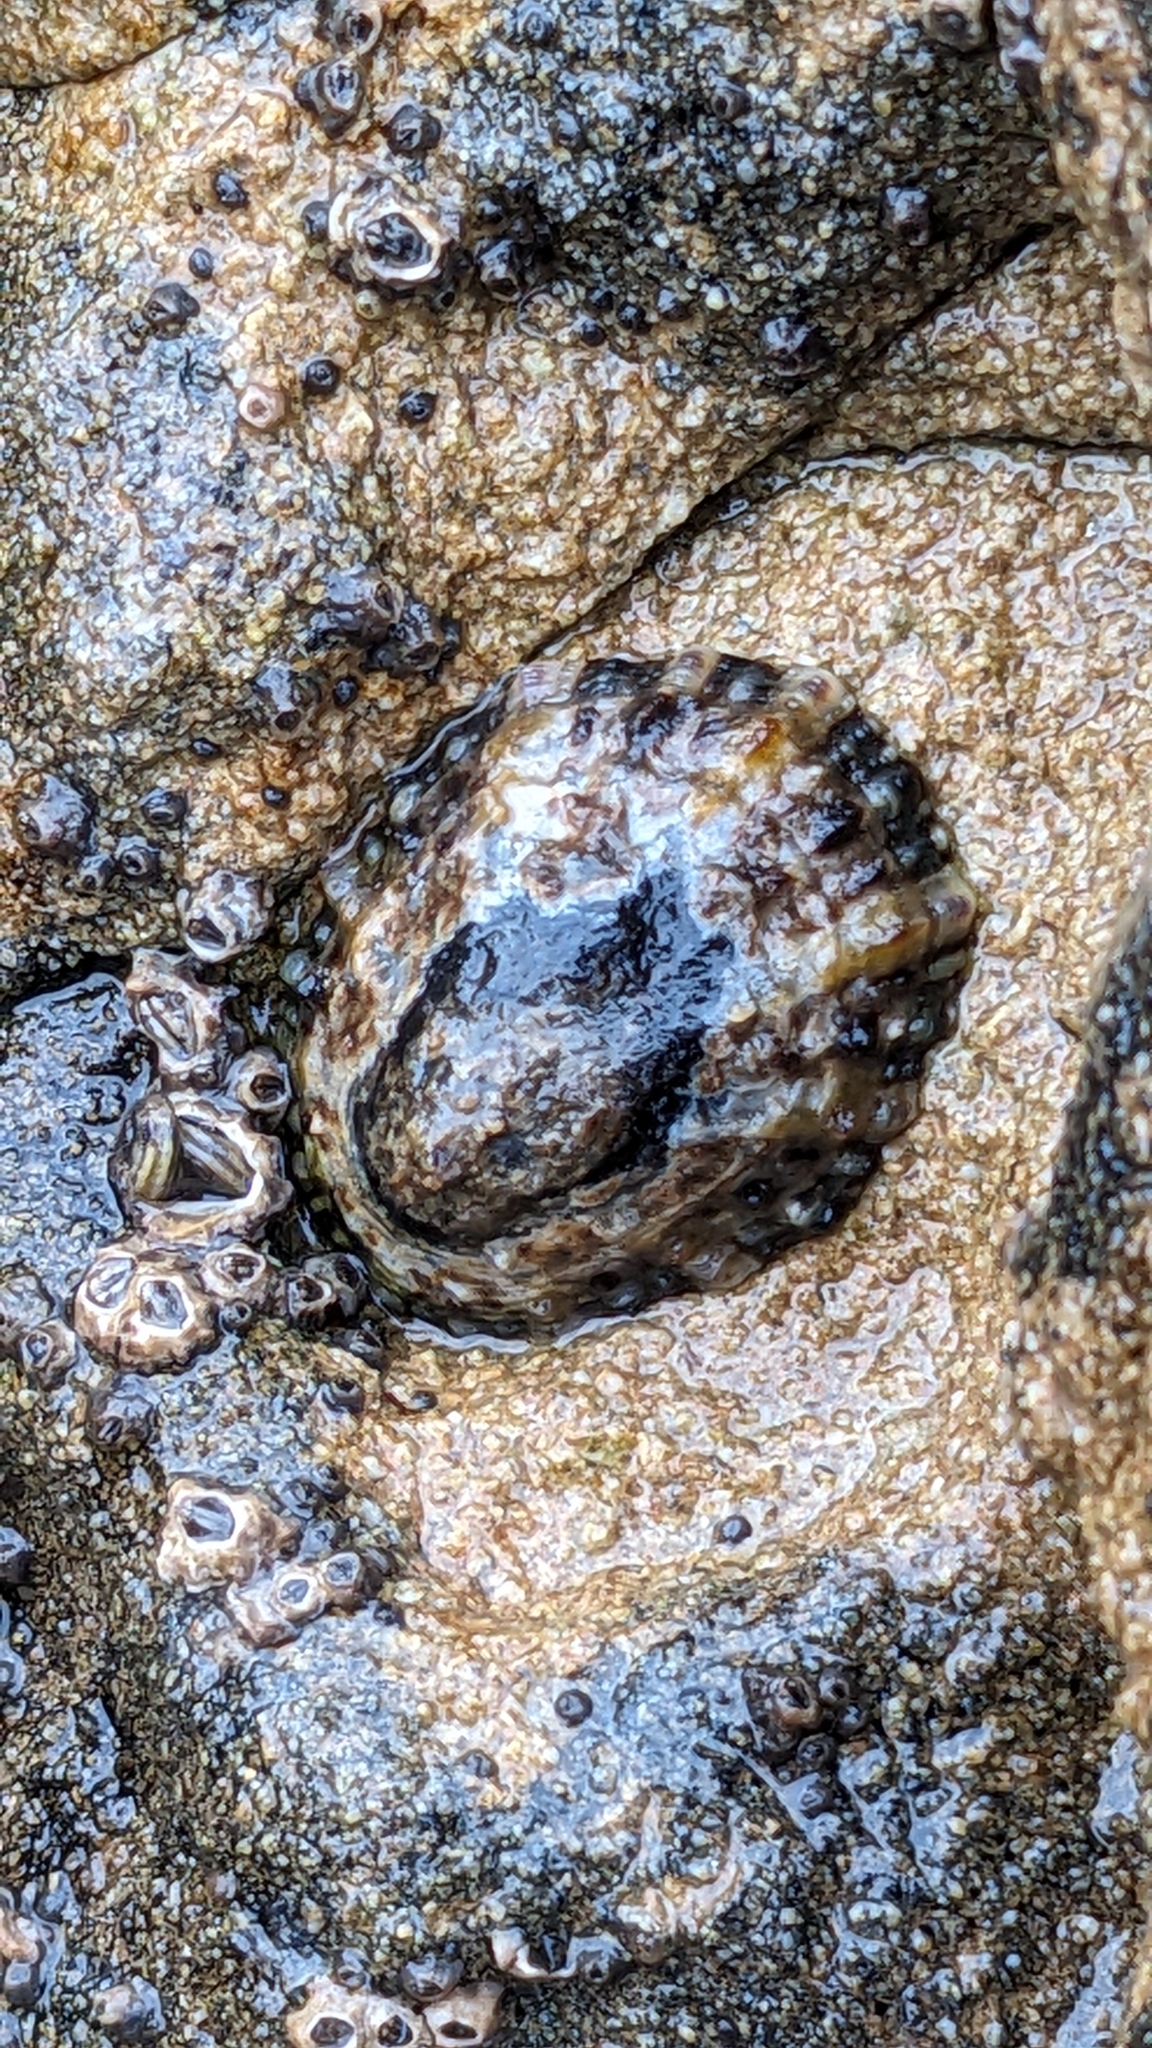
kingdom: Animalia
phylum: Mollusca
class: Gastropoda
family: Nacellidae
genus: Cellana
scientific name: Cellana ornata
